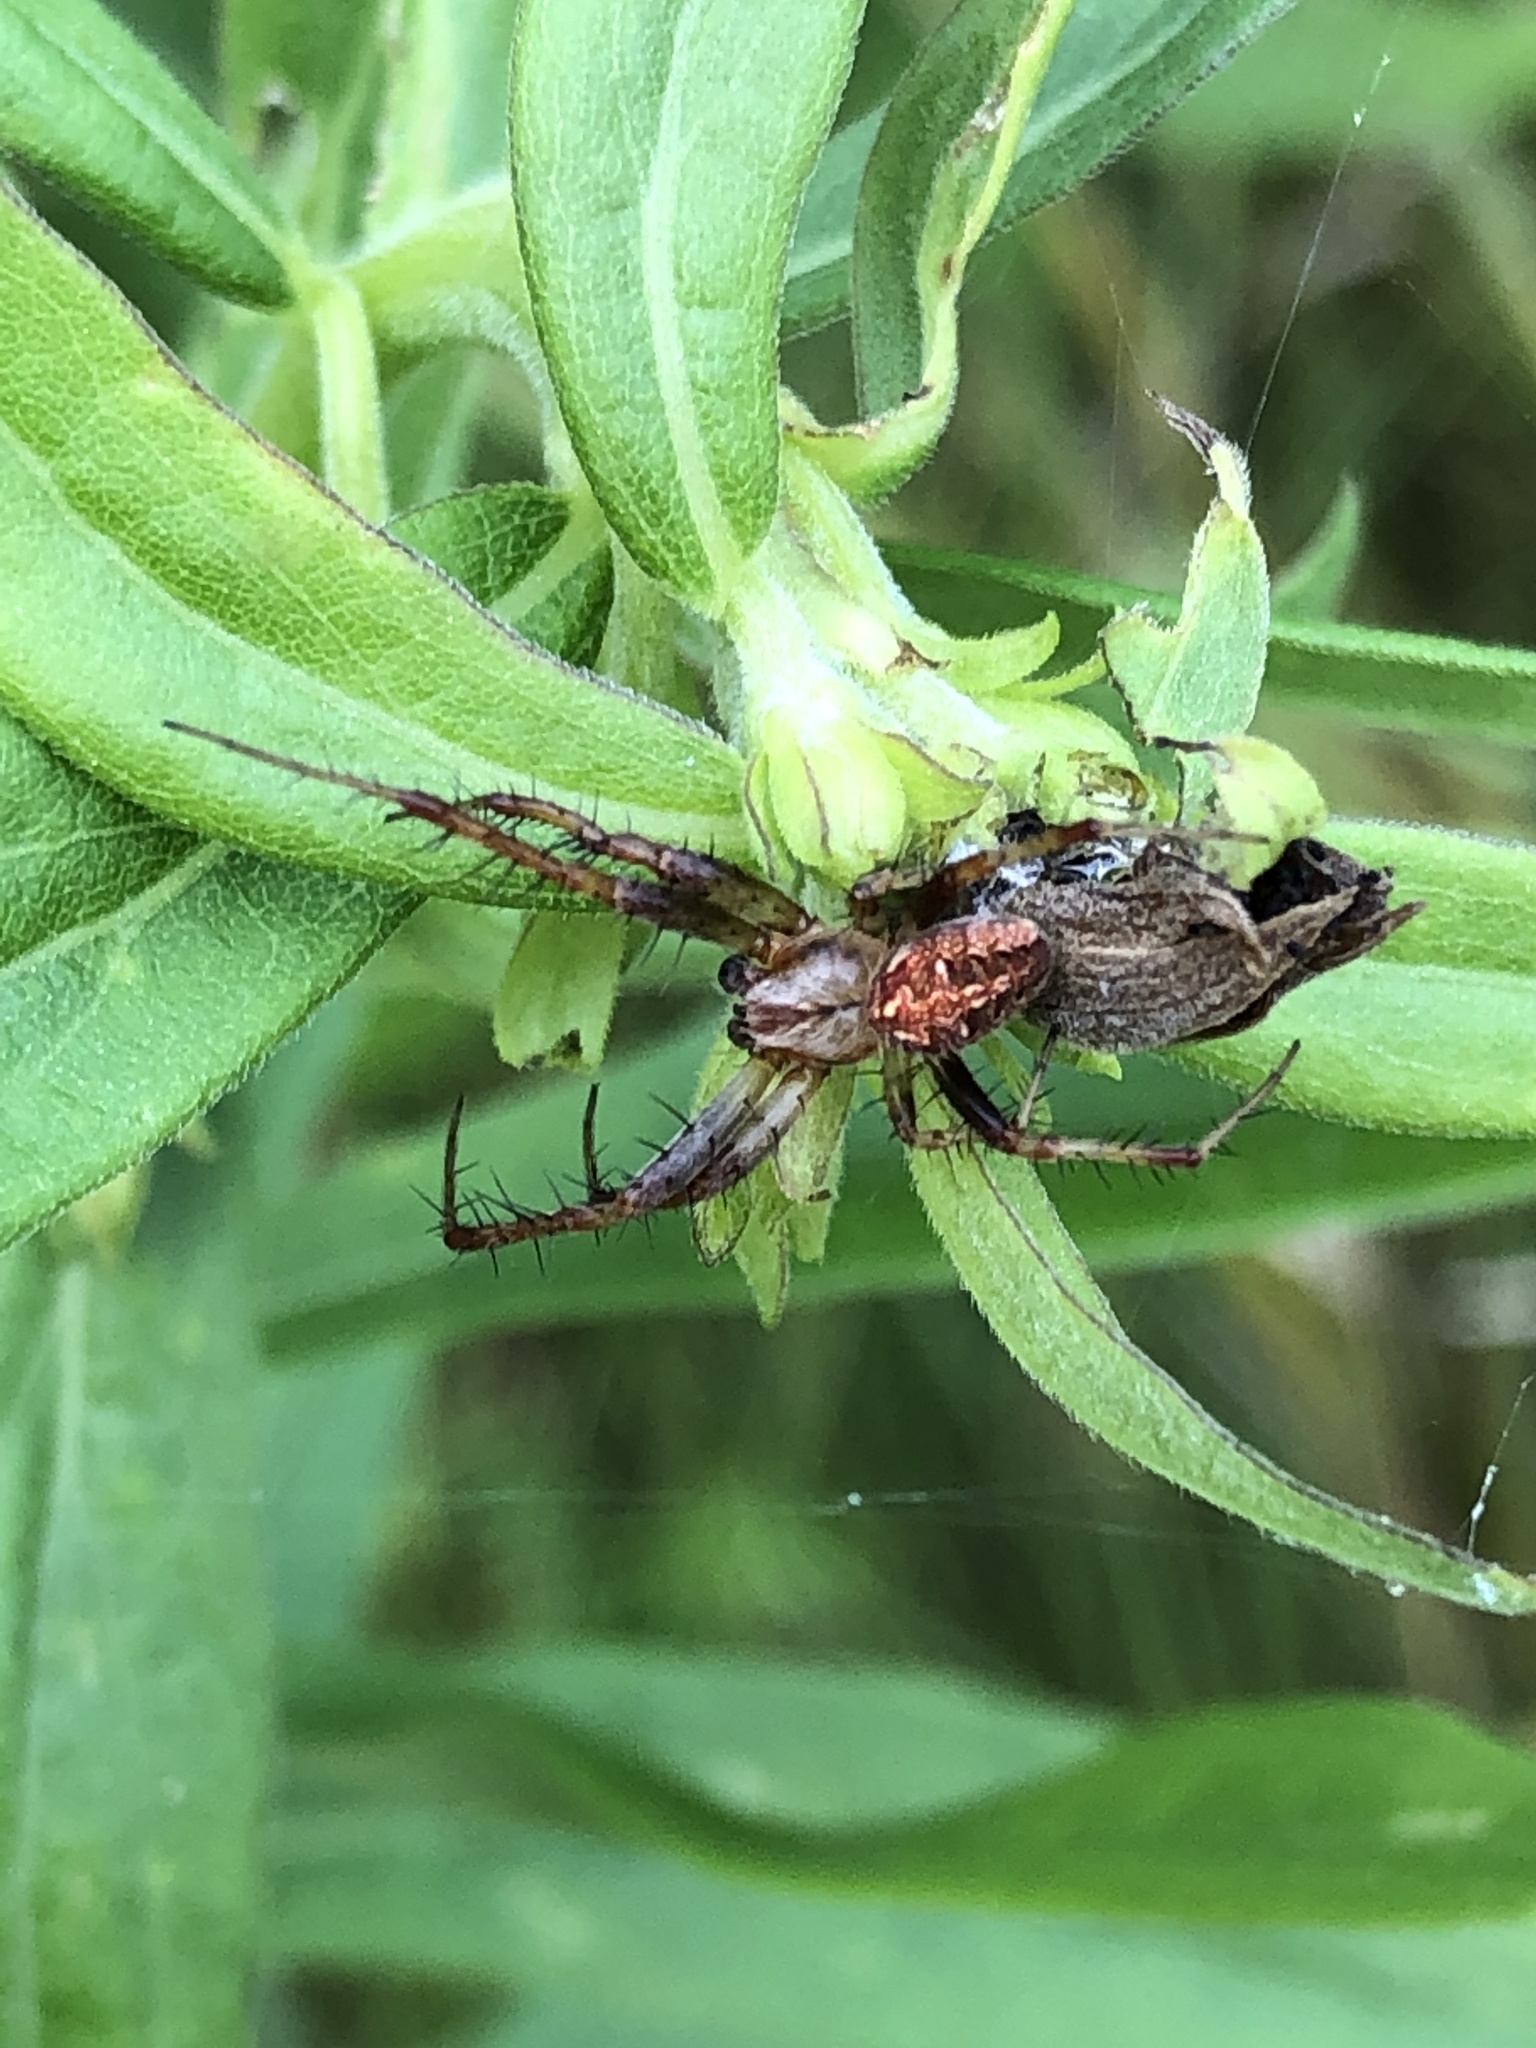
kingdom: Animalia
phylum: Arthropoda
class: Arachnida
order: Araneae
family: Araneidae
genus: Neoscona
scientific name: Neoscona arabesca
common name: Orb weavers
